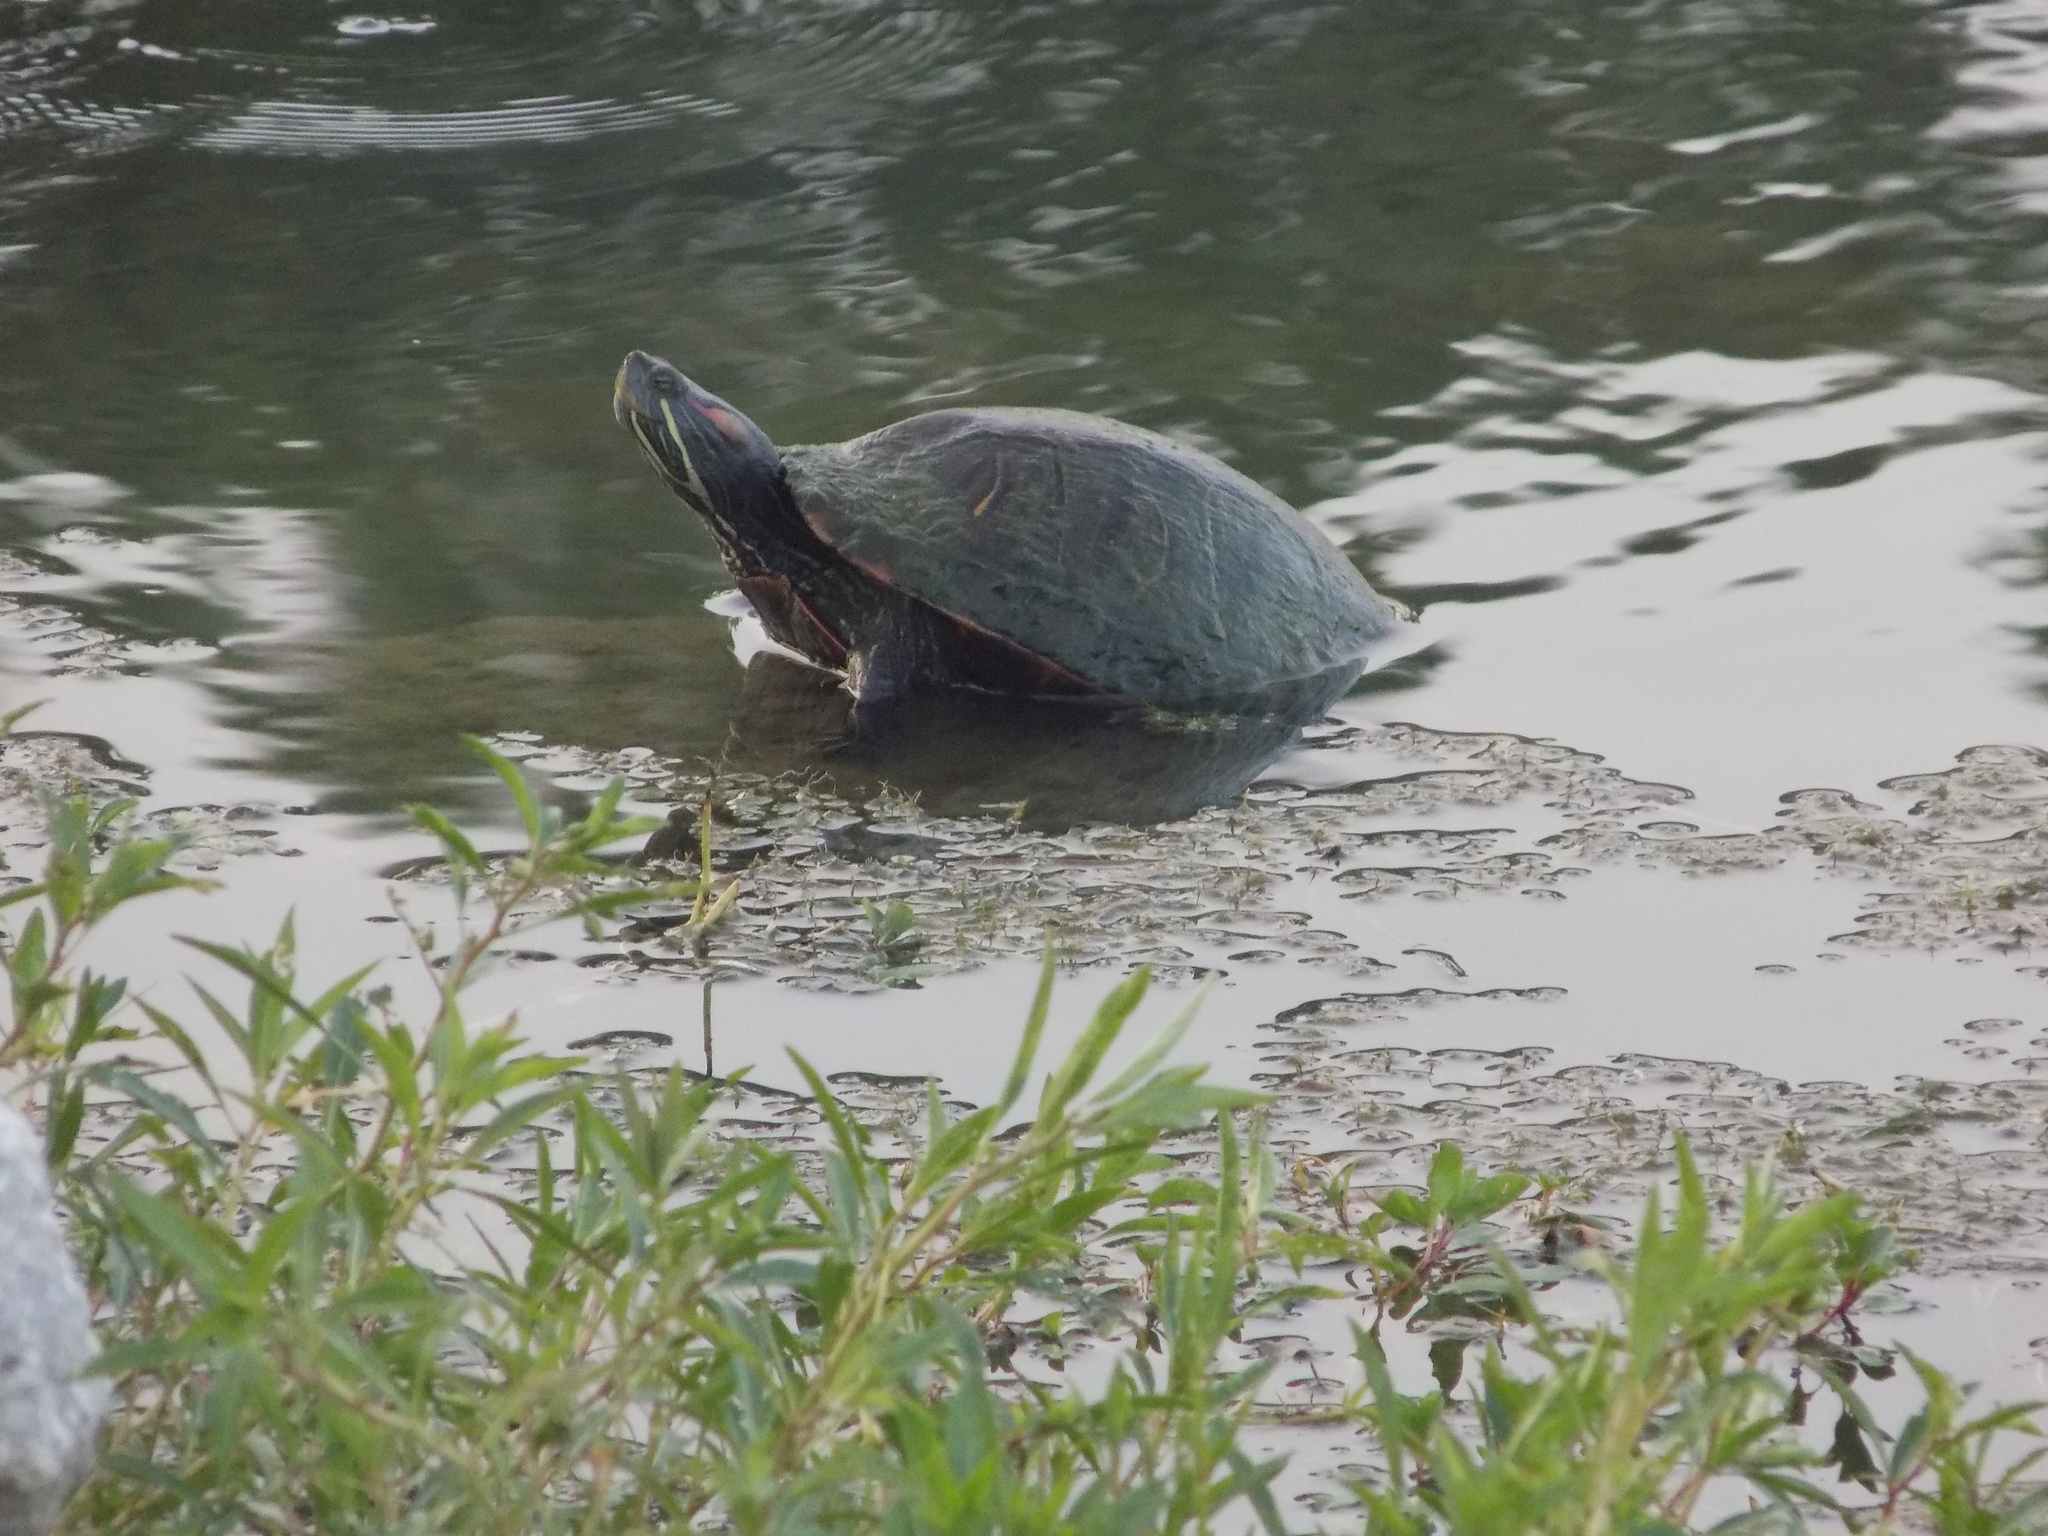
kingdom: Animalia
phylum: Chordata
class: Testudines
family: Emydidae
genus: Trachemys
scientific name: Trachemys scripta
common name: Slider
